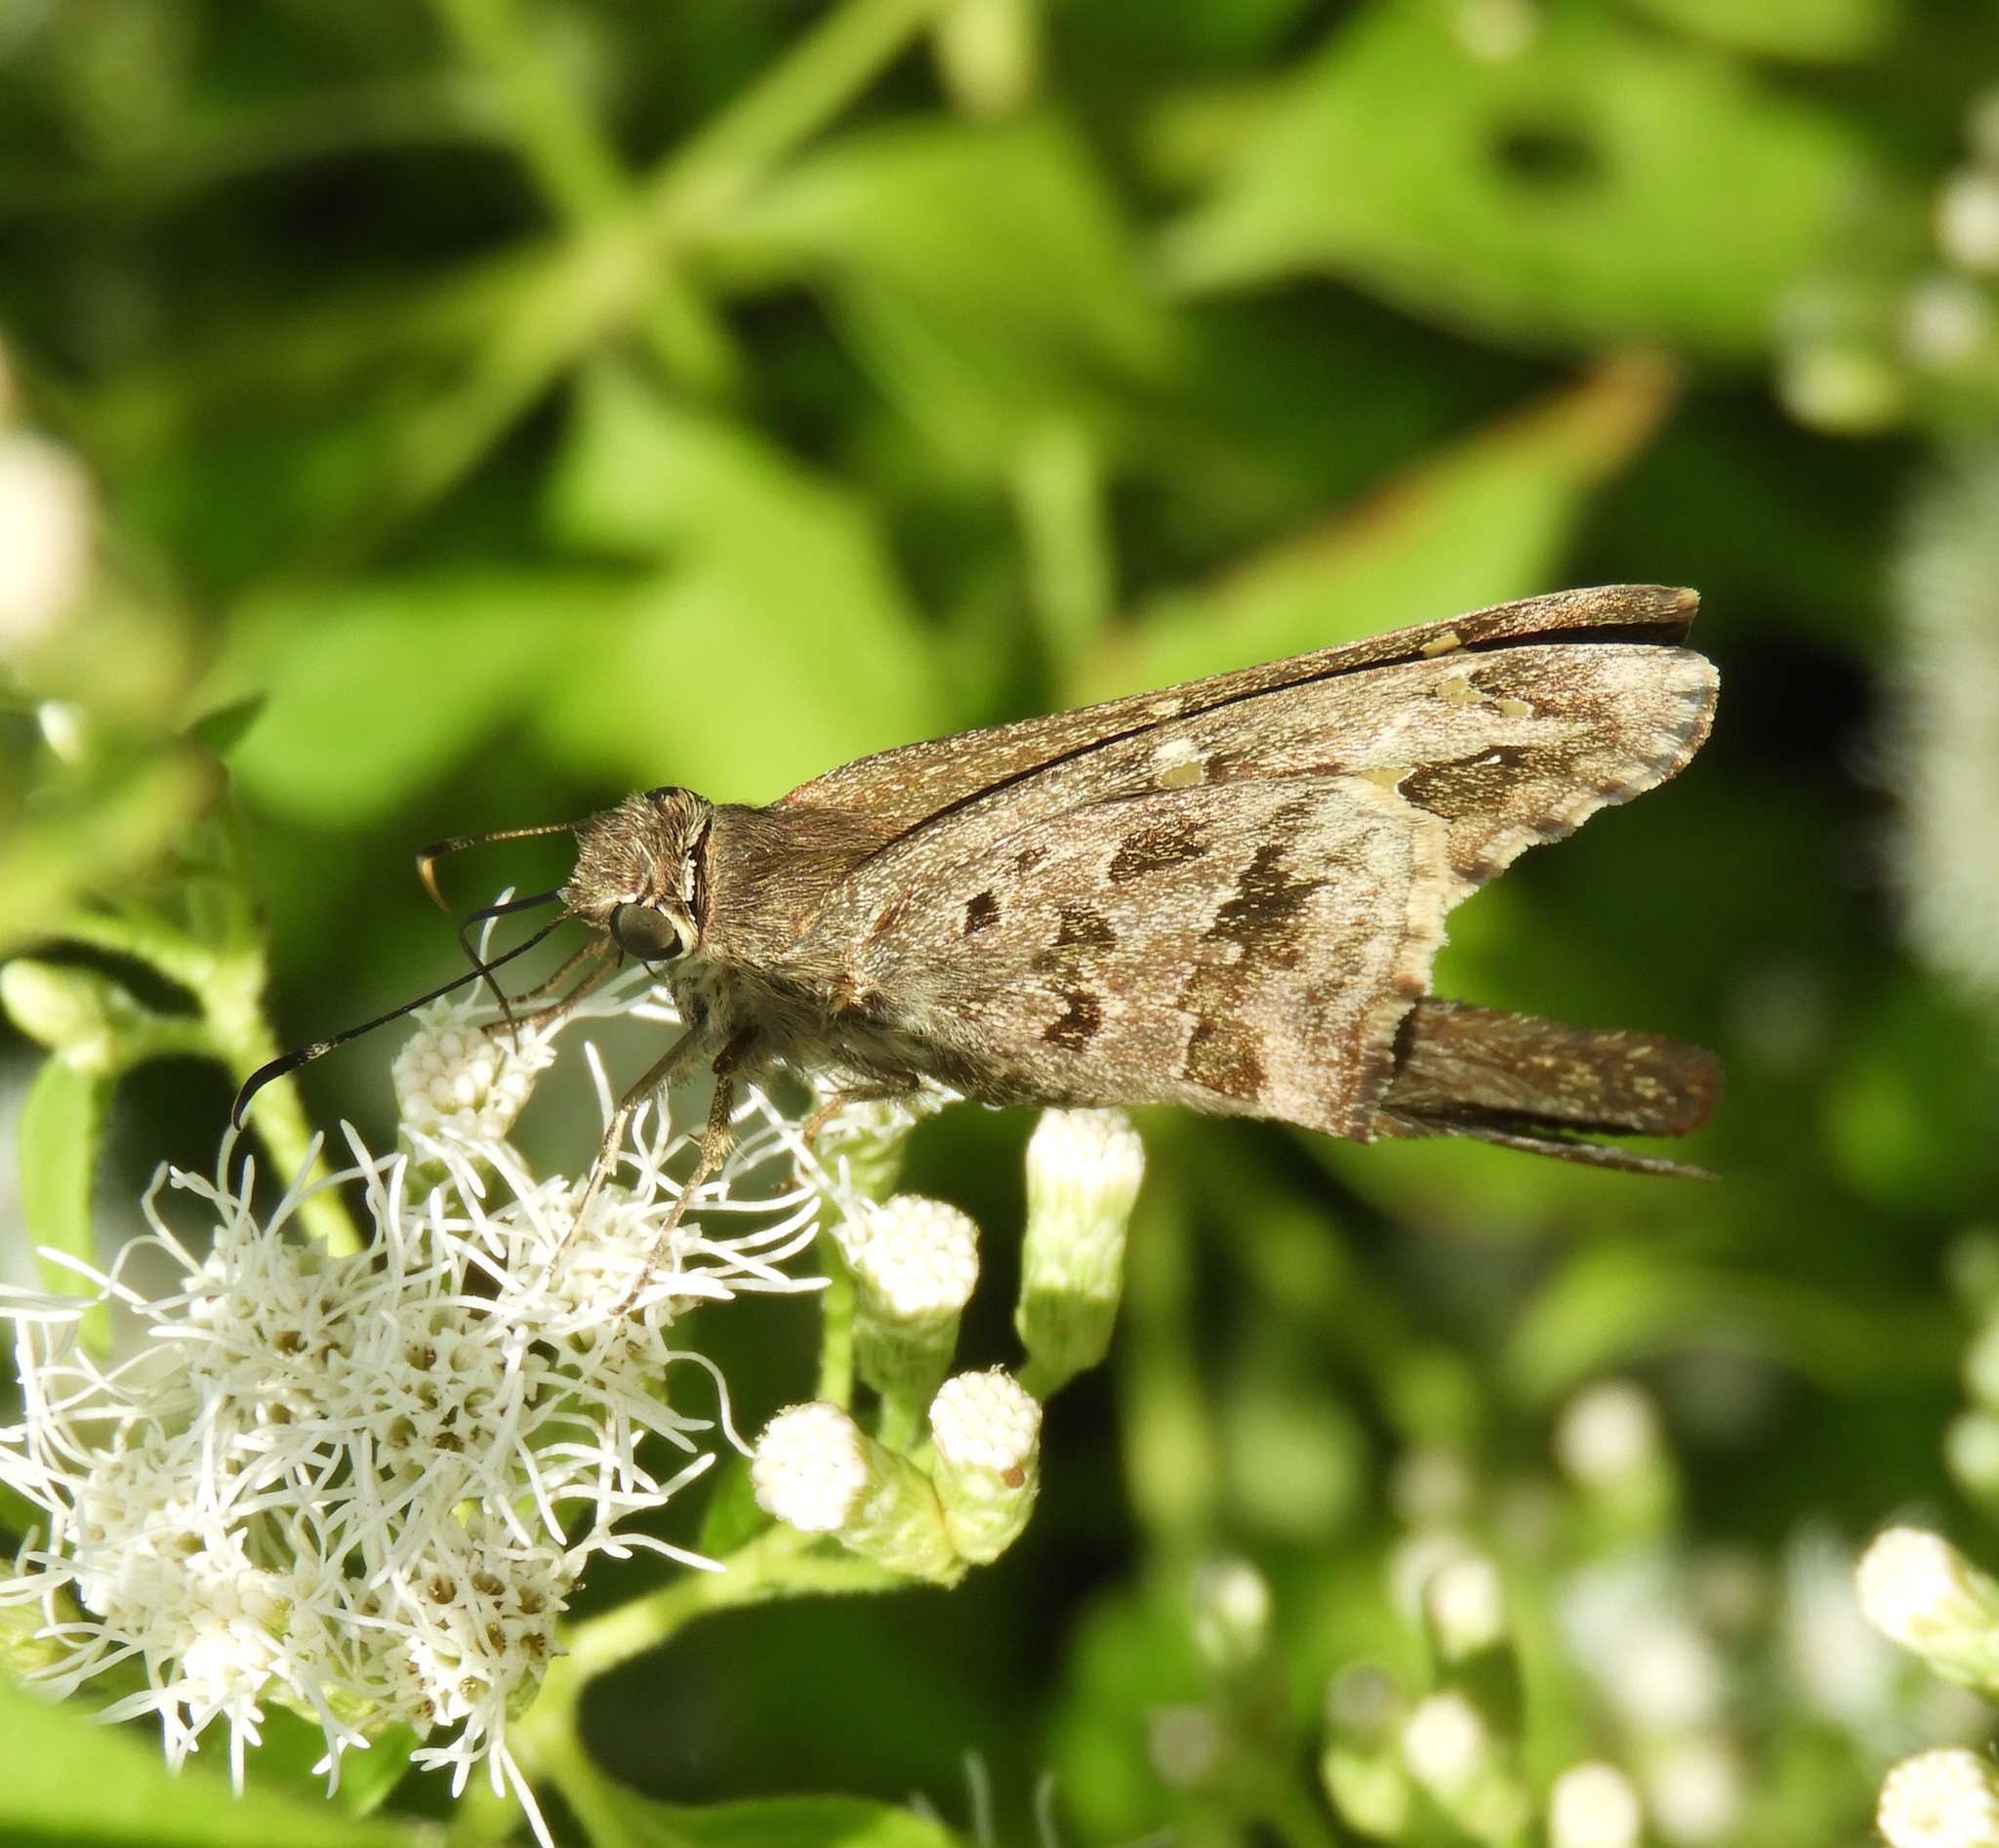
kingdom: Animalia
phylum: Arthropoda
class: Insecta
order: Lepidoptera
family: Hesperiidae
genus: Thorybes
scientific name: Thorybes
